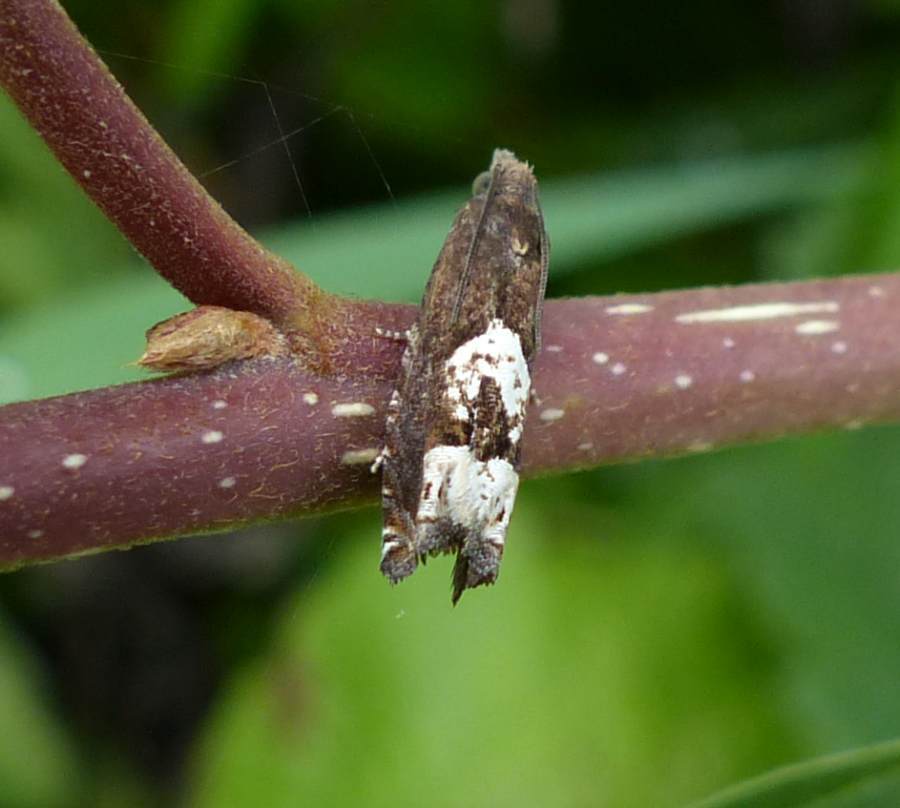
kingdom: Animalia
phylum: Arthropoda
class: Insecta
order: Lepidoptera
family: Tortricidae
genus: Eucosma
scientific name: Eucosma parmatana
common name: Aster eucosma moth
